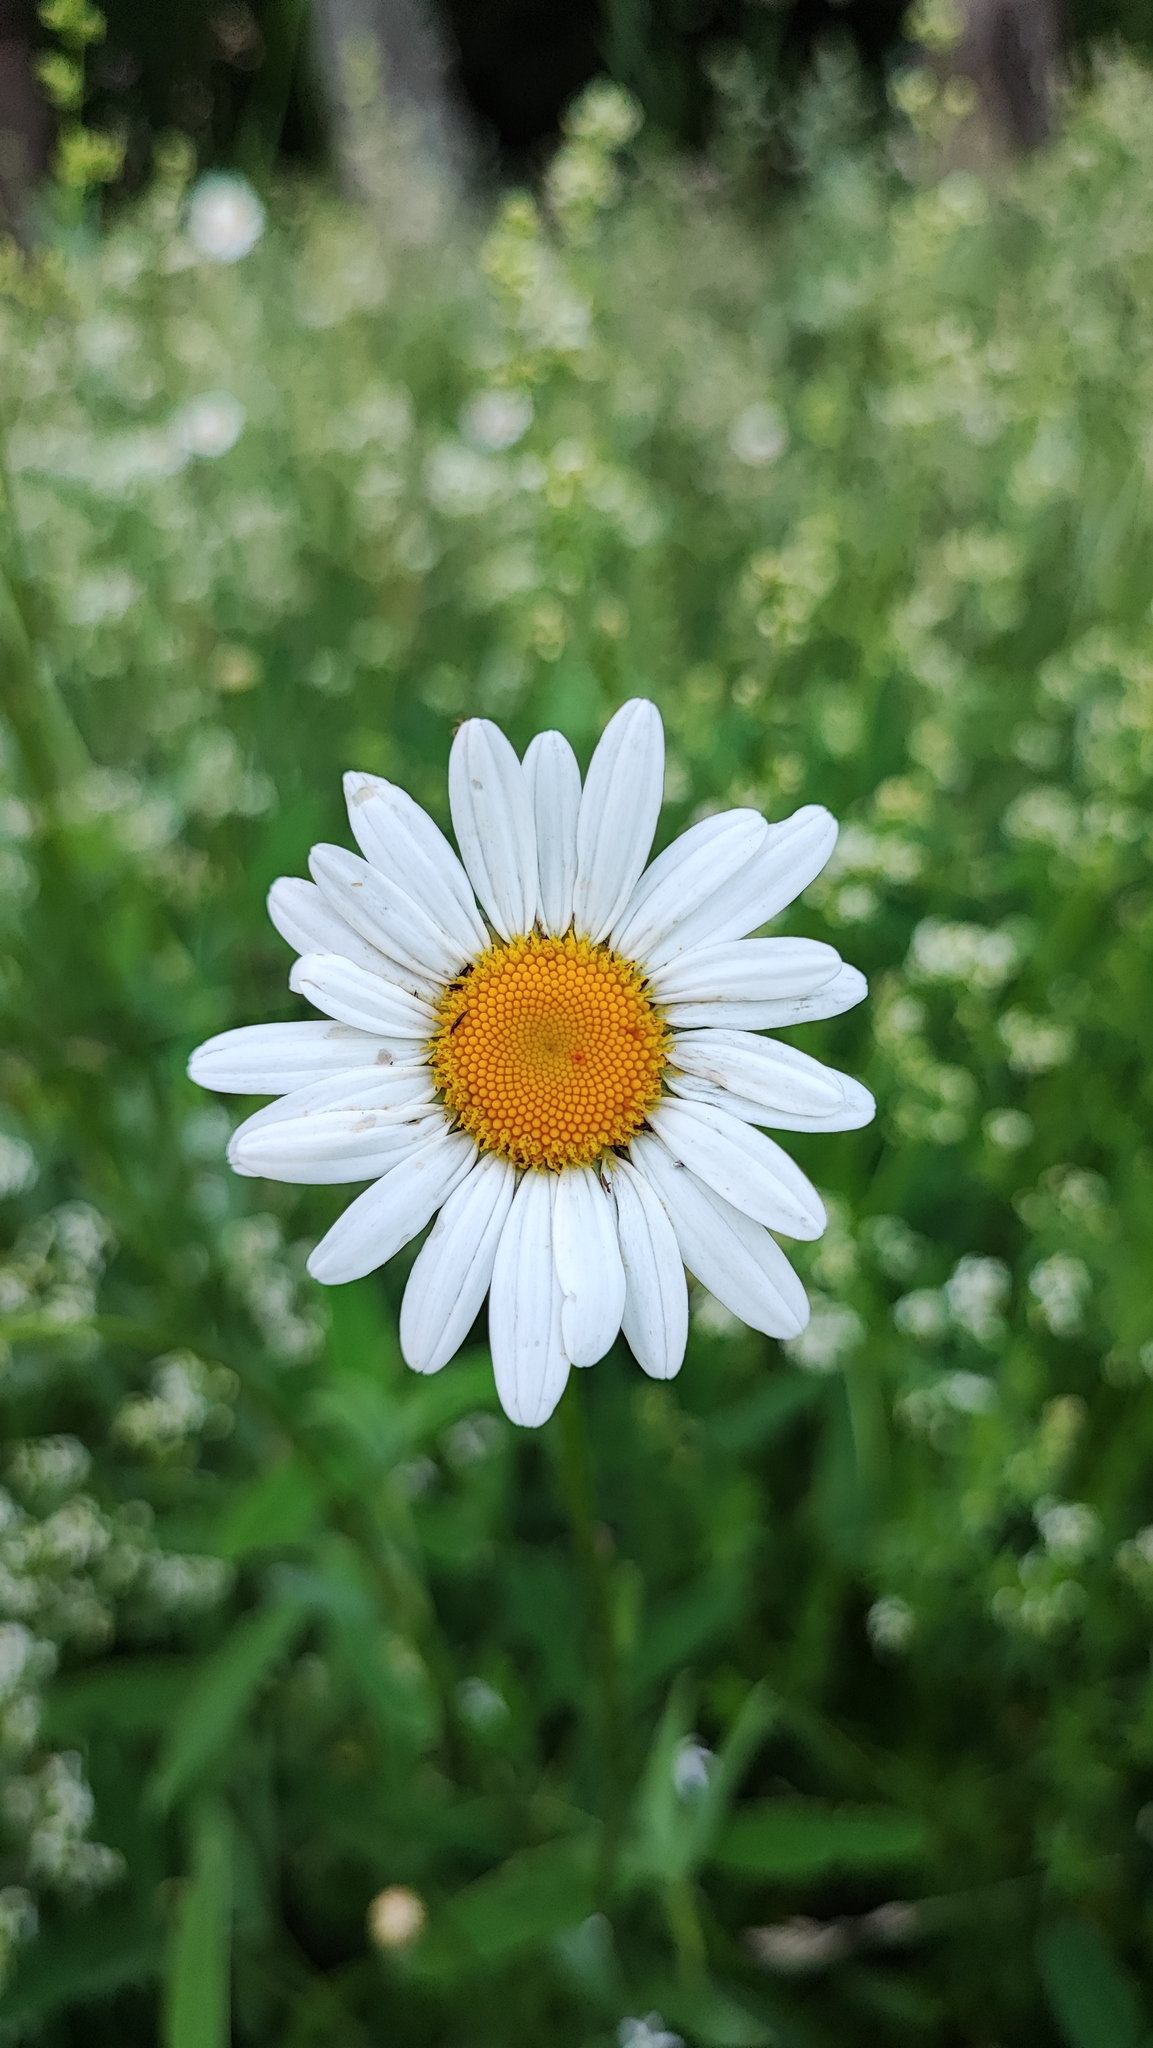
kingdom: Plantae
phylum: Tracheophyta
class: Magnoliopsida
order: Asterales
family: Asteraceae
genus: Leucanthemum
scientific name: Leucanthemum vulgare
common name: Oxeye daisy
